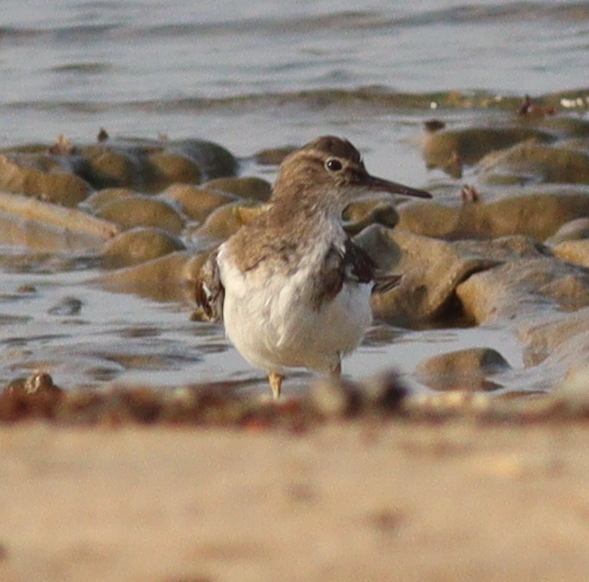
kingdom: Animalia
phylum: Chordata
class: Aves
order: Charadriiformes
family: Scolopacidae
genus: Actitis
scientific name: Actitis hypoleucos
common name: Common sandpiper
